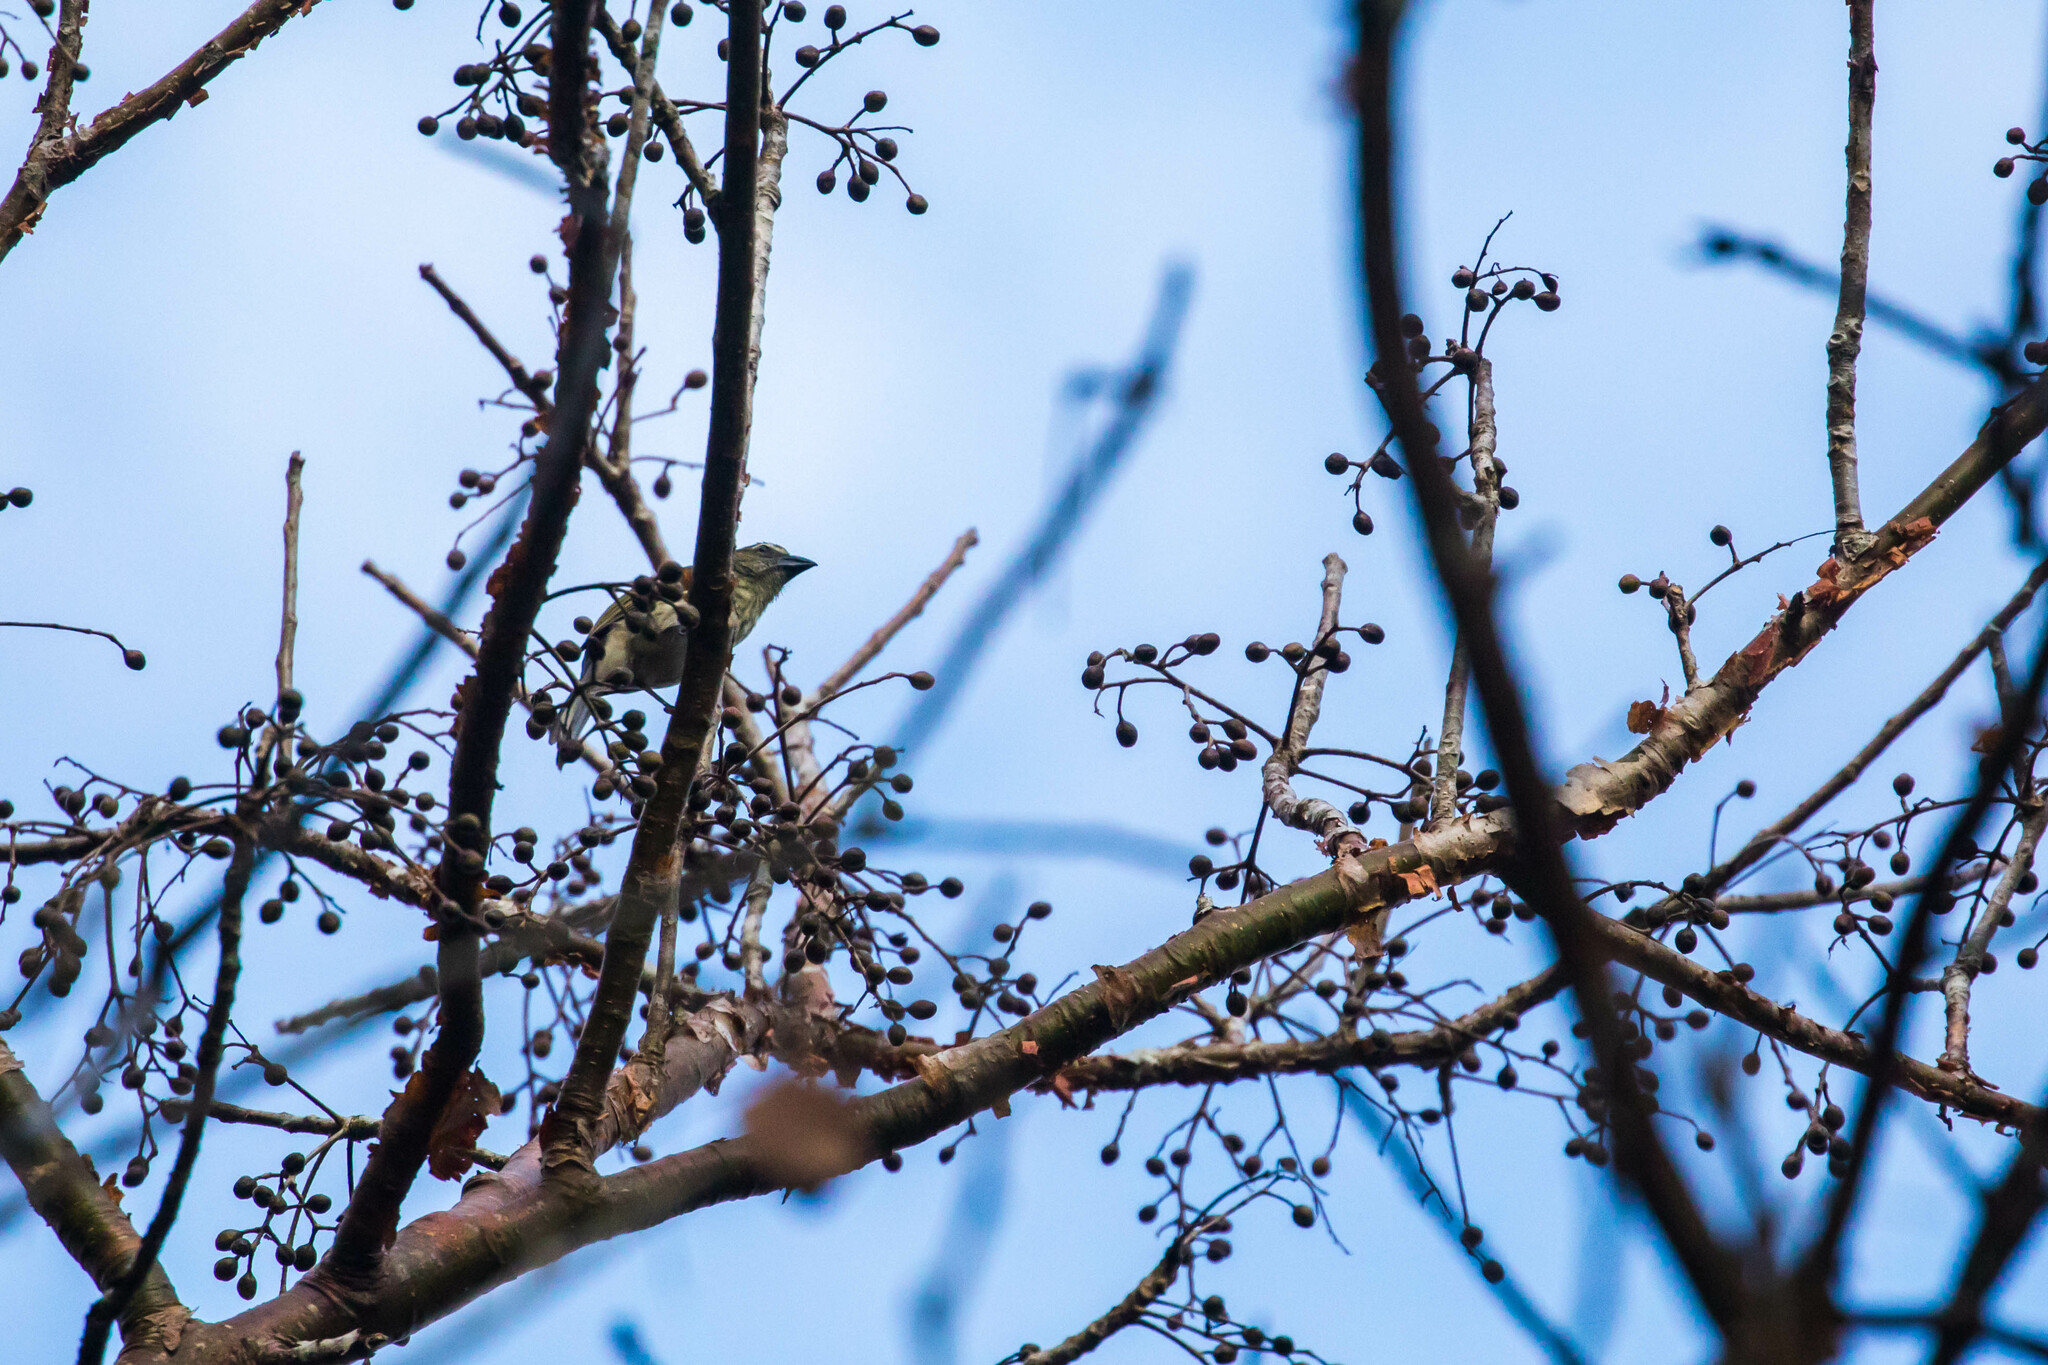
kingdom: Animalia
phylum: Chordata
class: Aves
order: Passeriformes
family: Thraupidae
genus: Saltator
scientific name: Saltator striatipectus
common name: Streaked saltator
